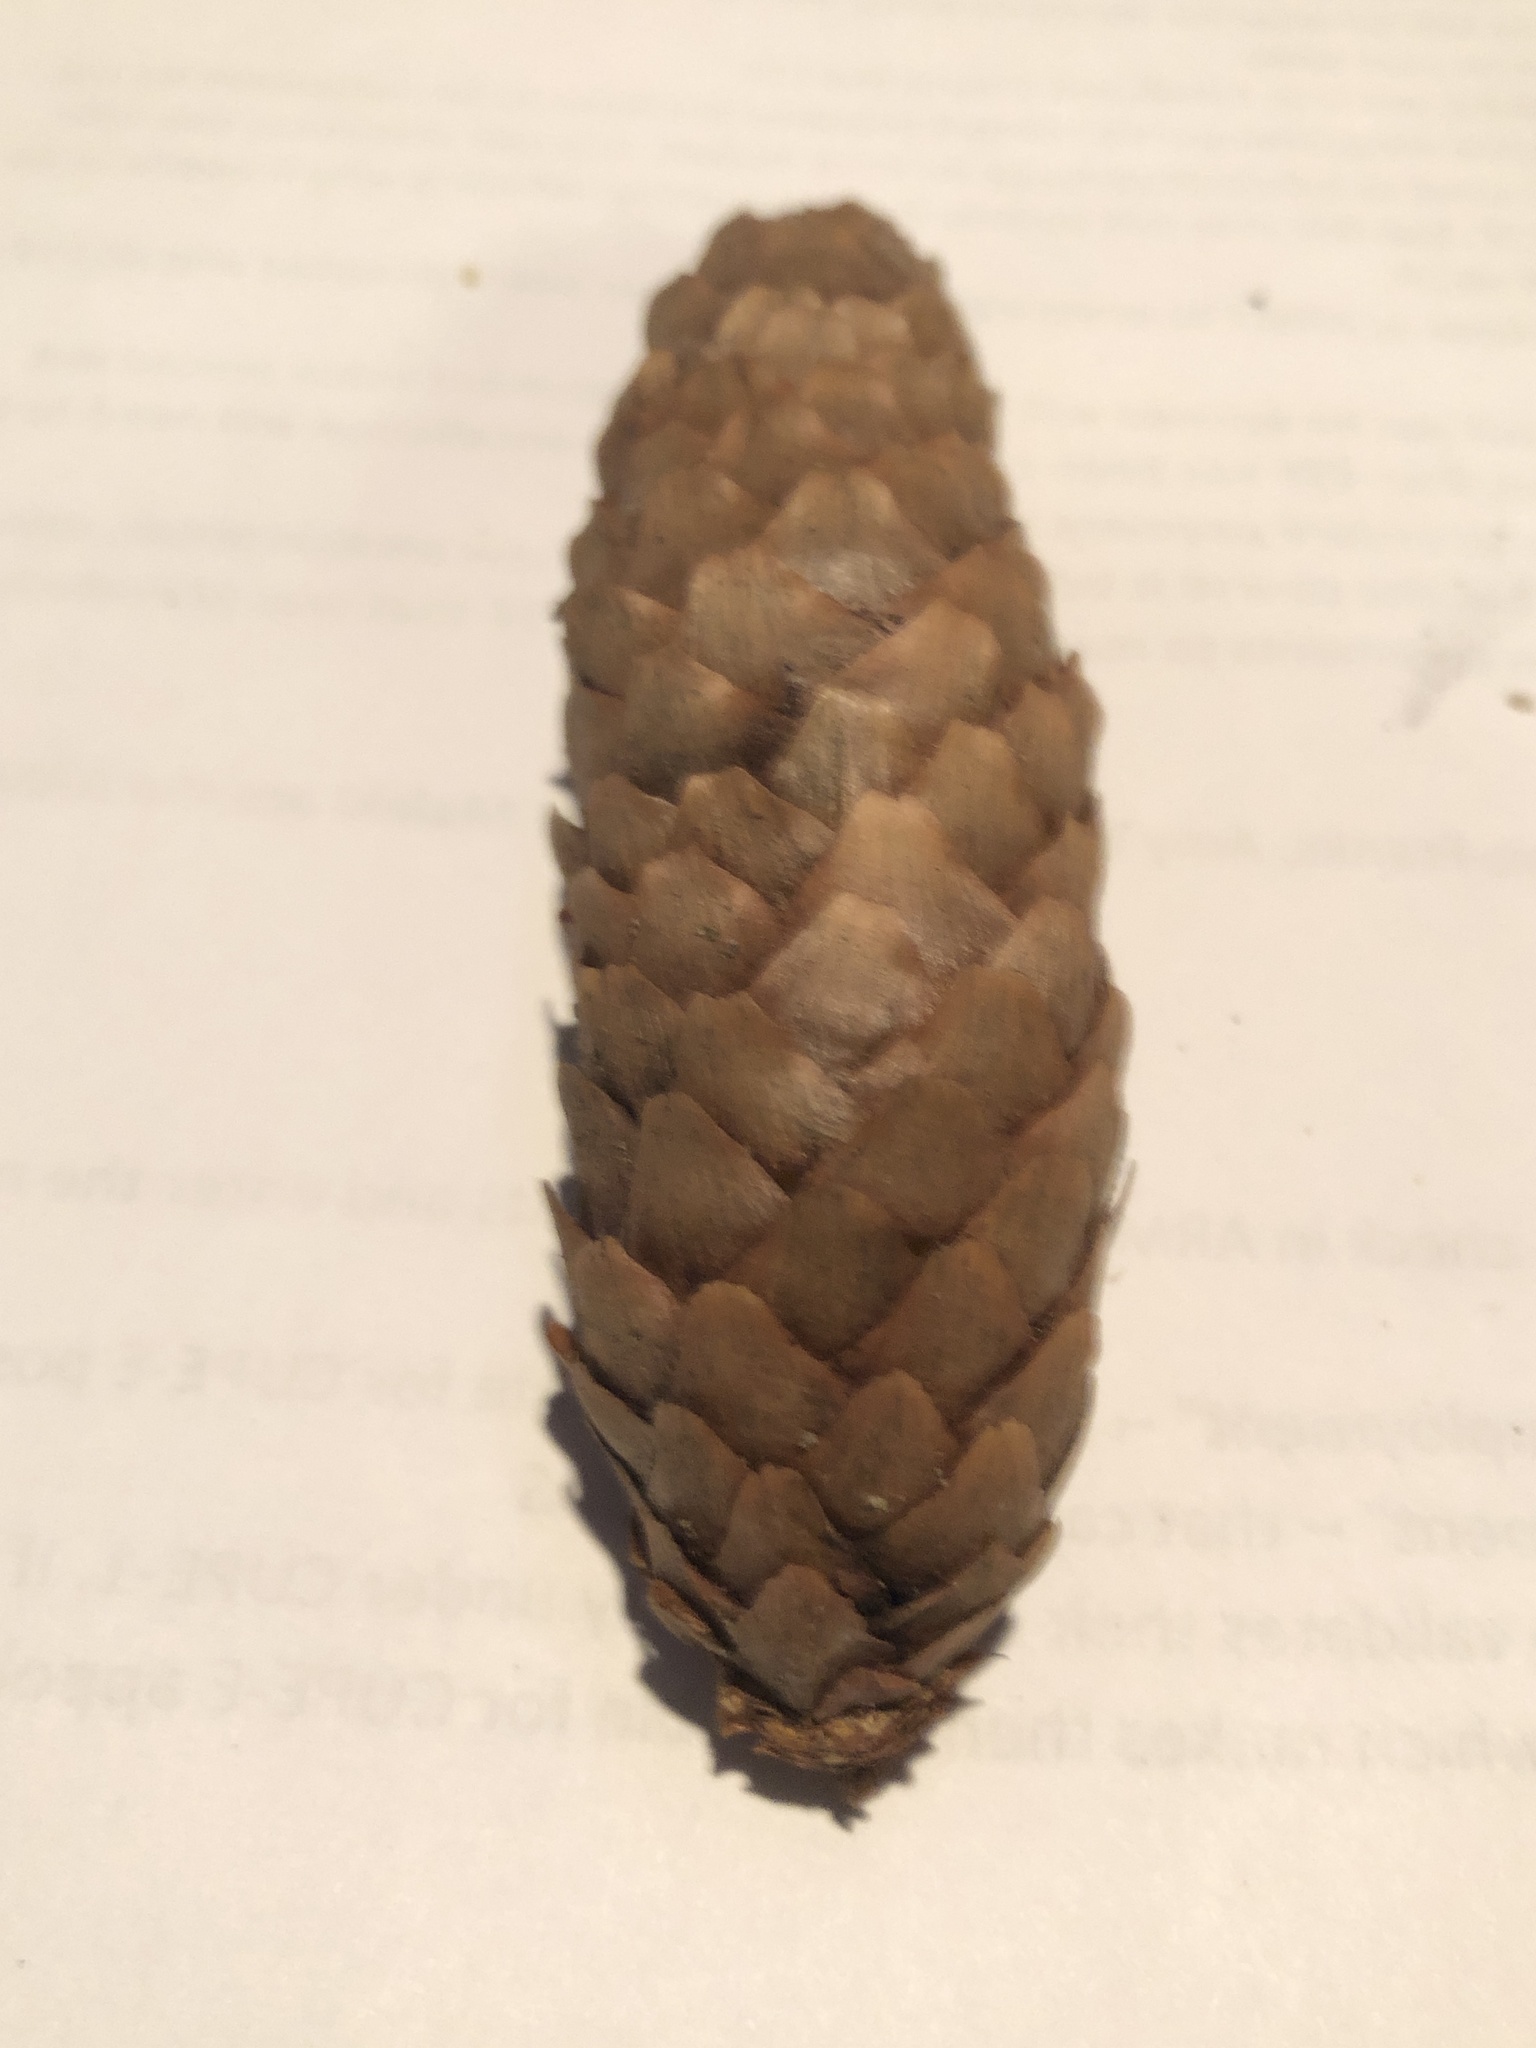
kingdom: Plantae
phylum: Tracheophyta
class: Pinopsida
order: Pinales
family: Pinaceae
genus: Picea
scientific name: Picea abies
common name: Norway spruce
